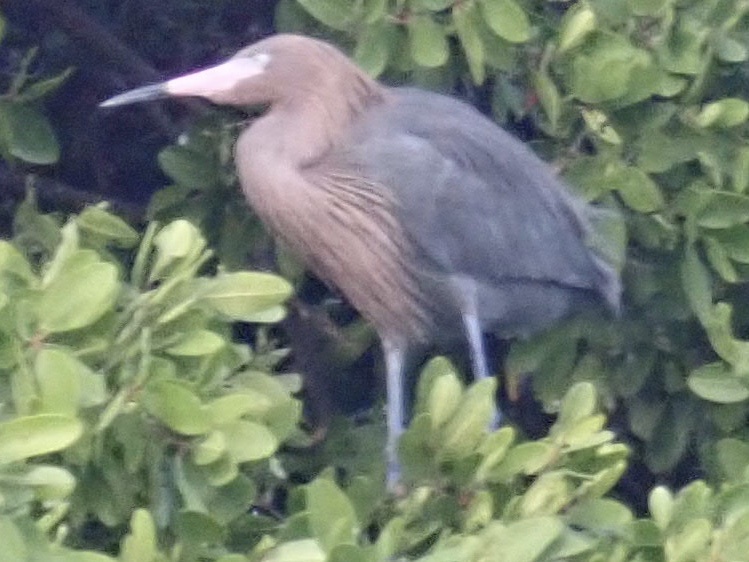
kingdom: Animalia
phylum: Chordata
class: Aves
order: Pelecaniformes
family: Ardeidae
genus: Egretta
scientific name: Egretta rufescens
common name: Reddish egret
